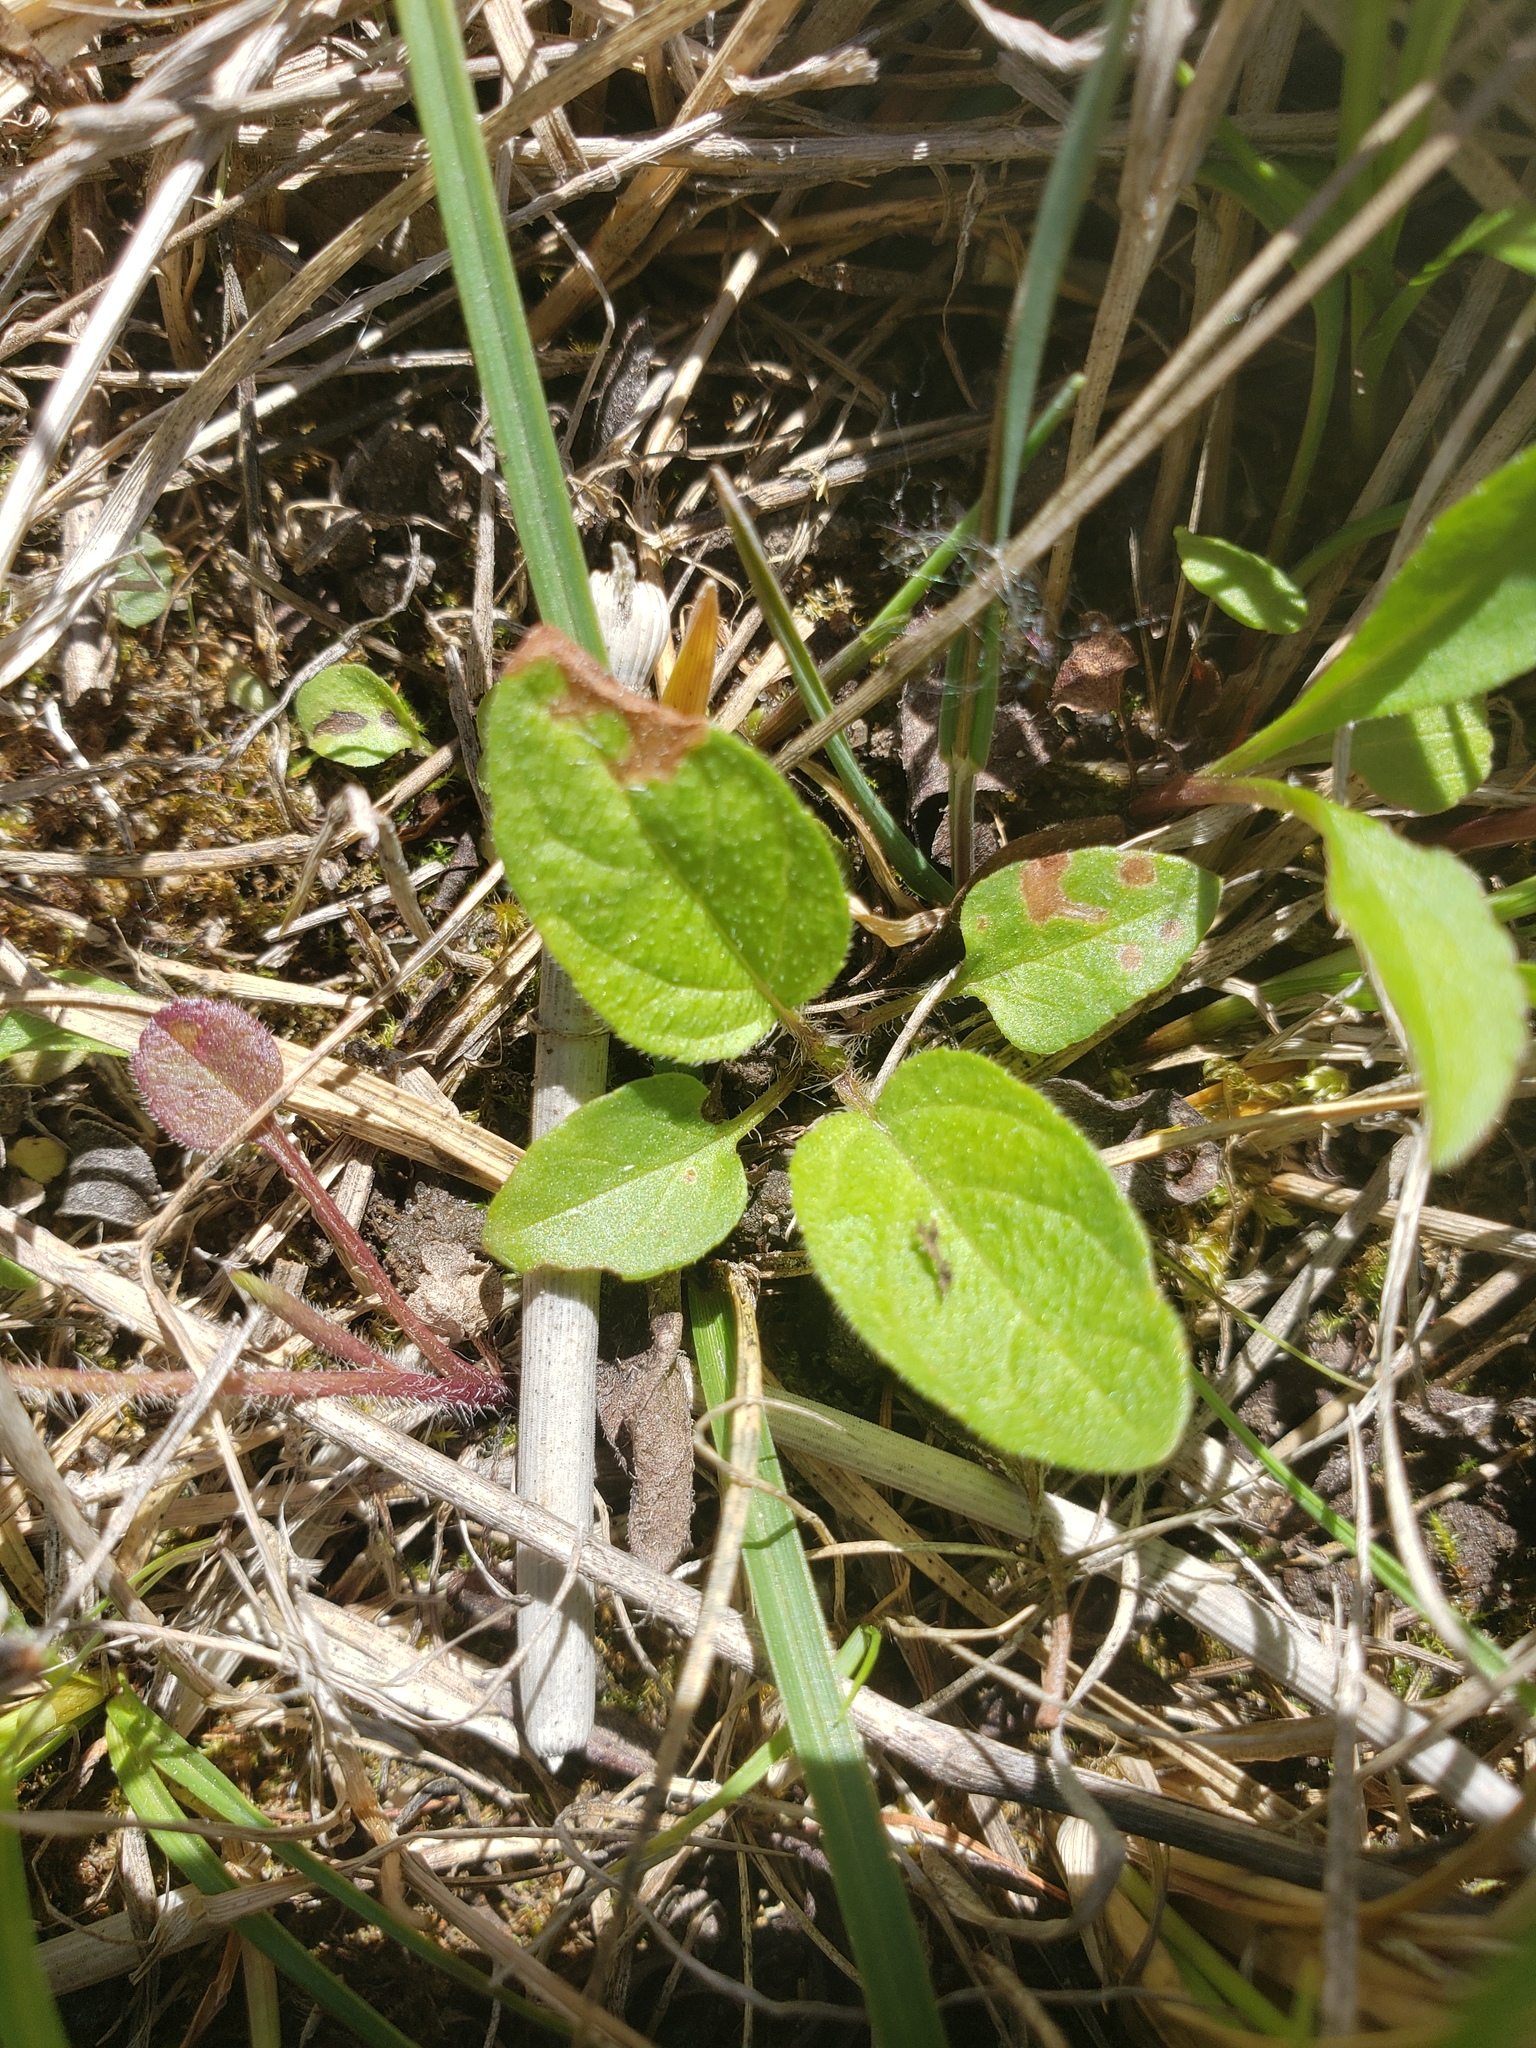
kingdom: Plantae
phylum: Tracheophyta
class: Magnoliopsida
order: Lamiales
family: Lamiaceae
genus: Prunella
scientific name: Prunella vulgaris
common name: Heal-all
